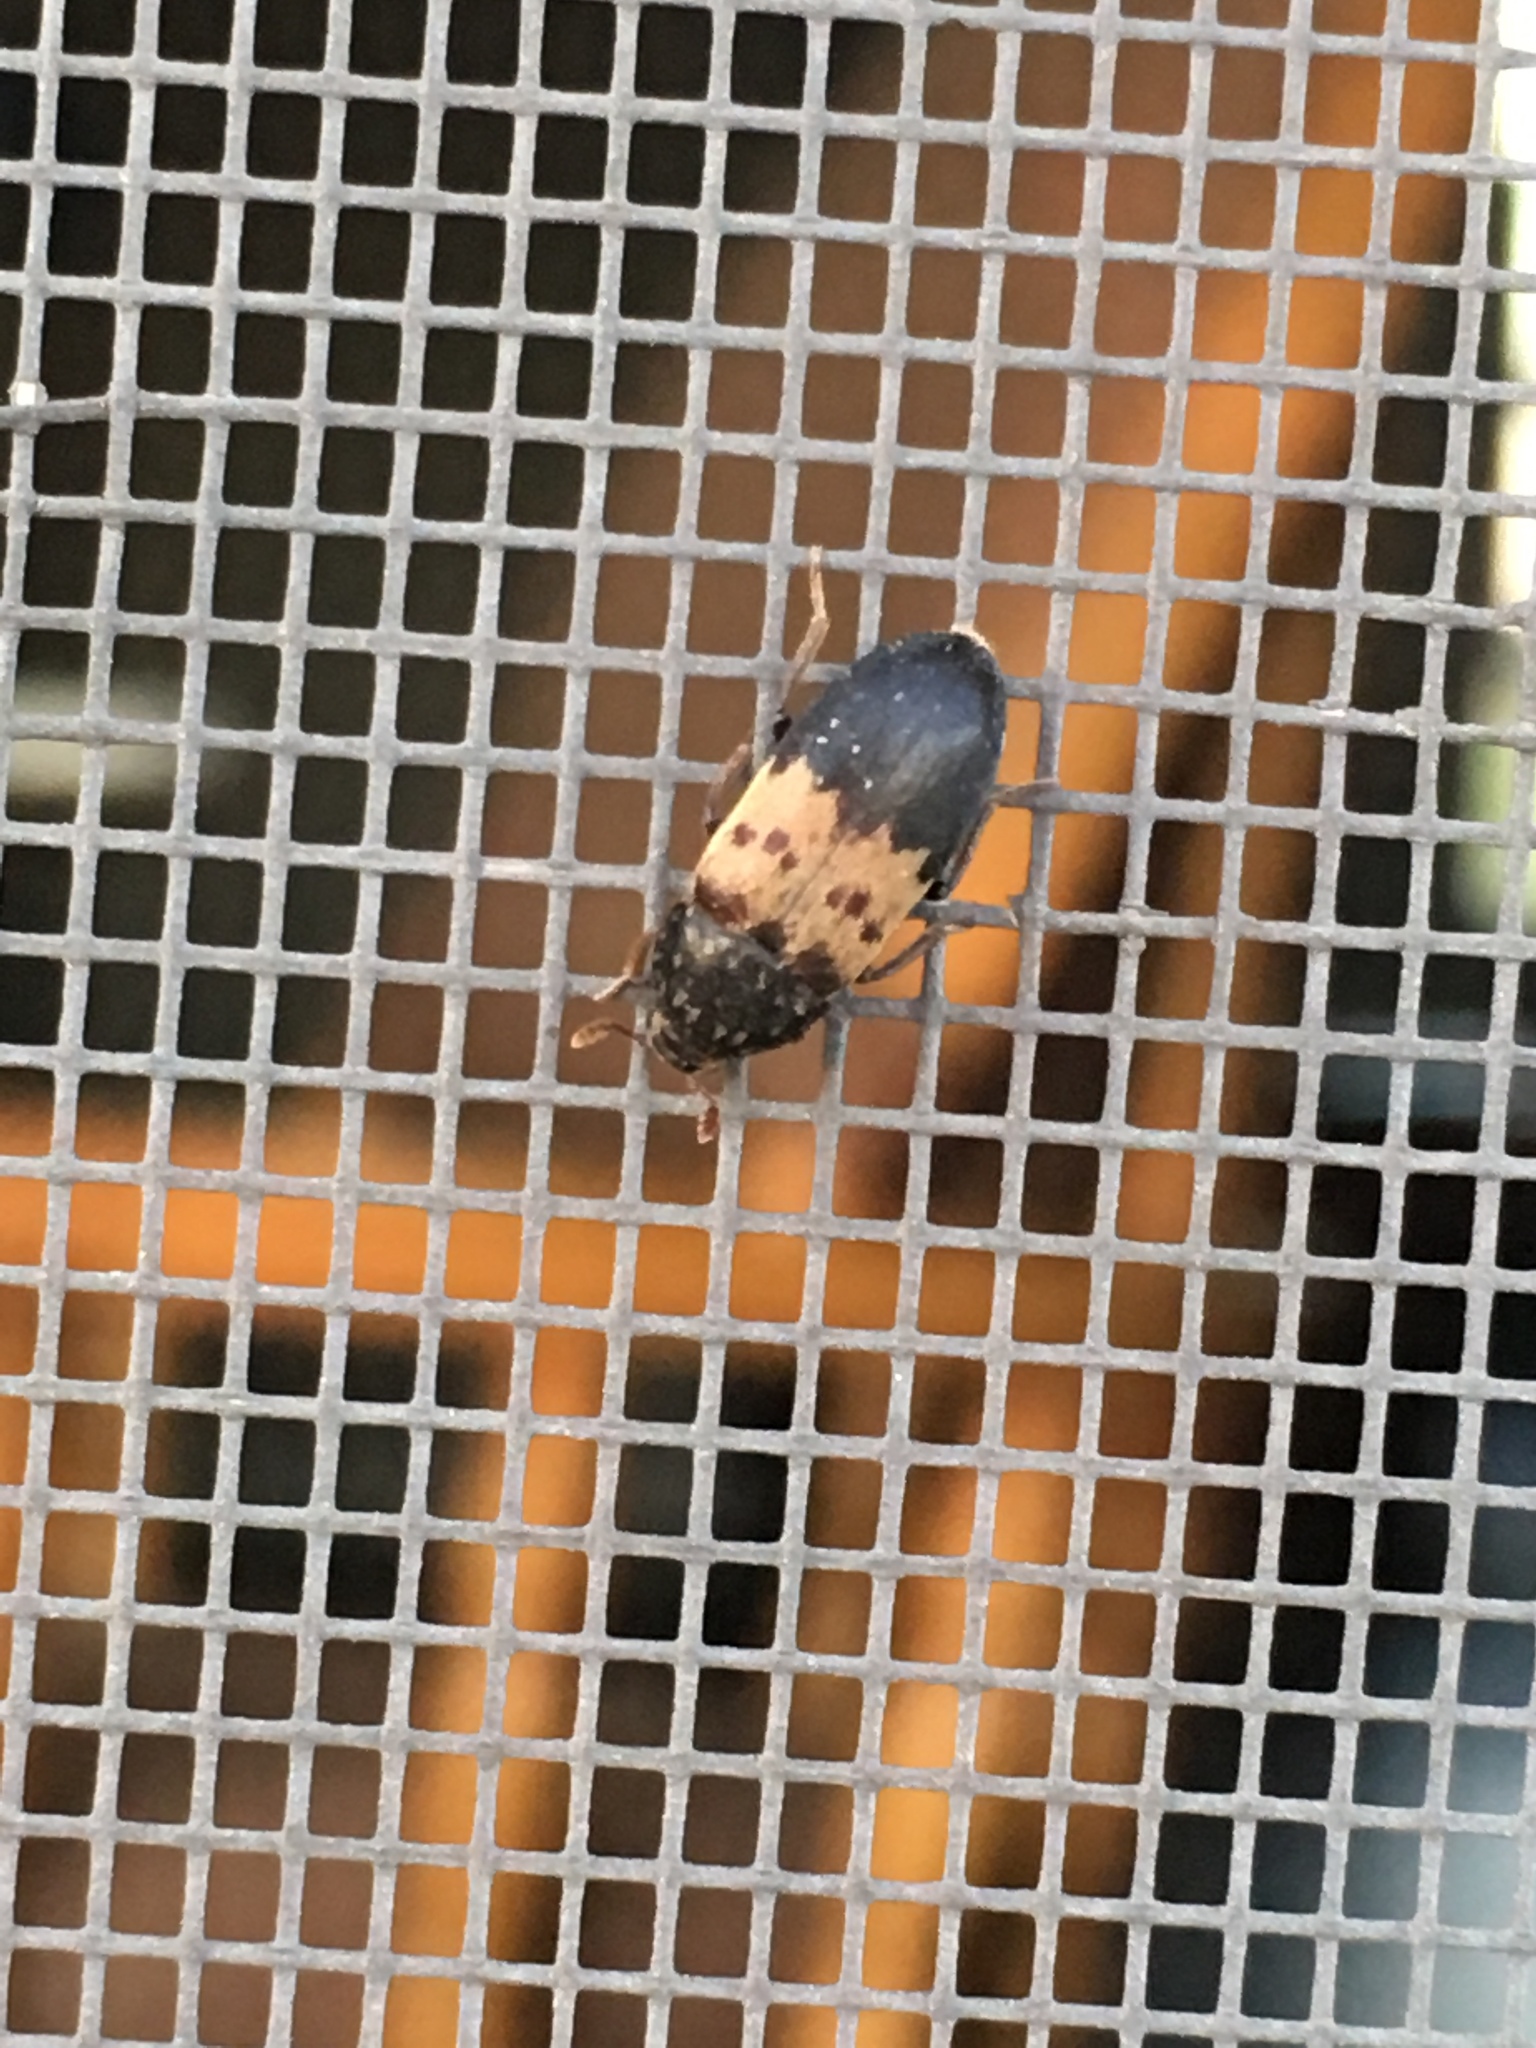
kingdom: Animalia
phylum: Arthropoda
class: Insecta
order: Coleoptera
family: Dermestidae
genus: Dermestes
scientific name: Dermestes lardarius
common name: Larder beetle
